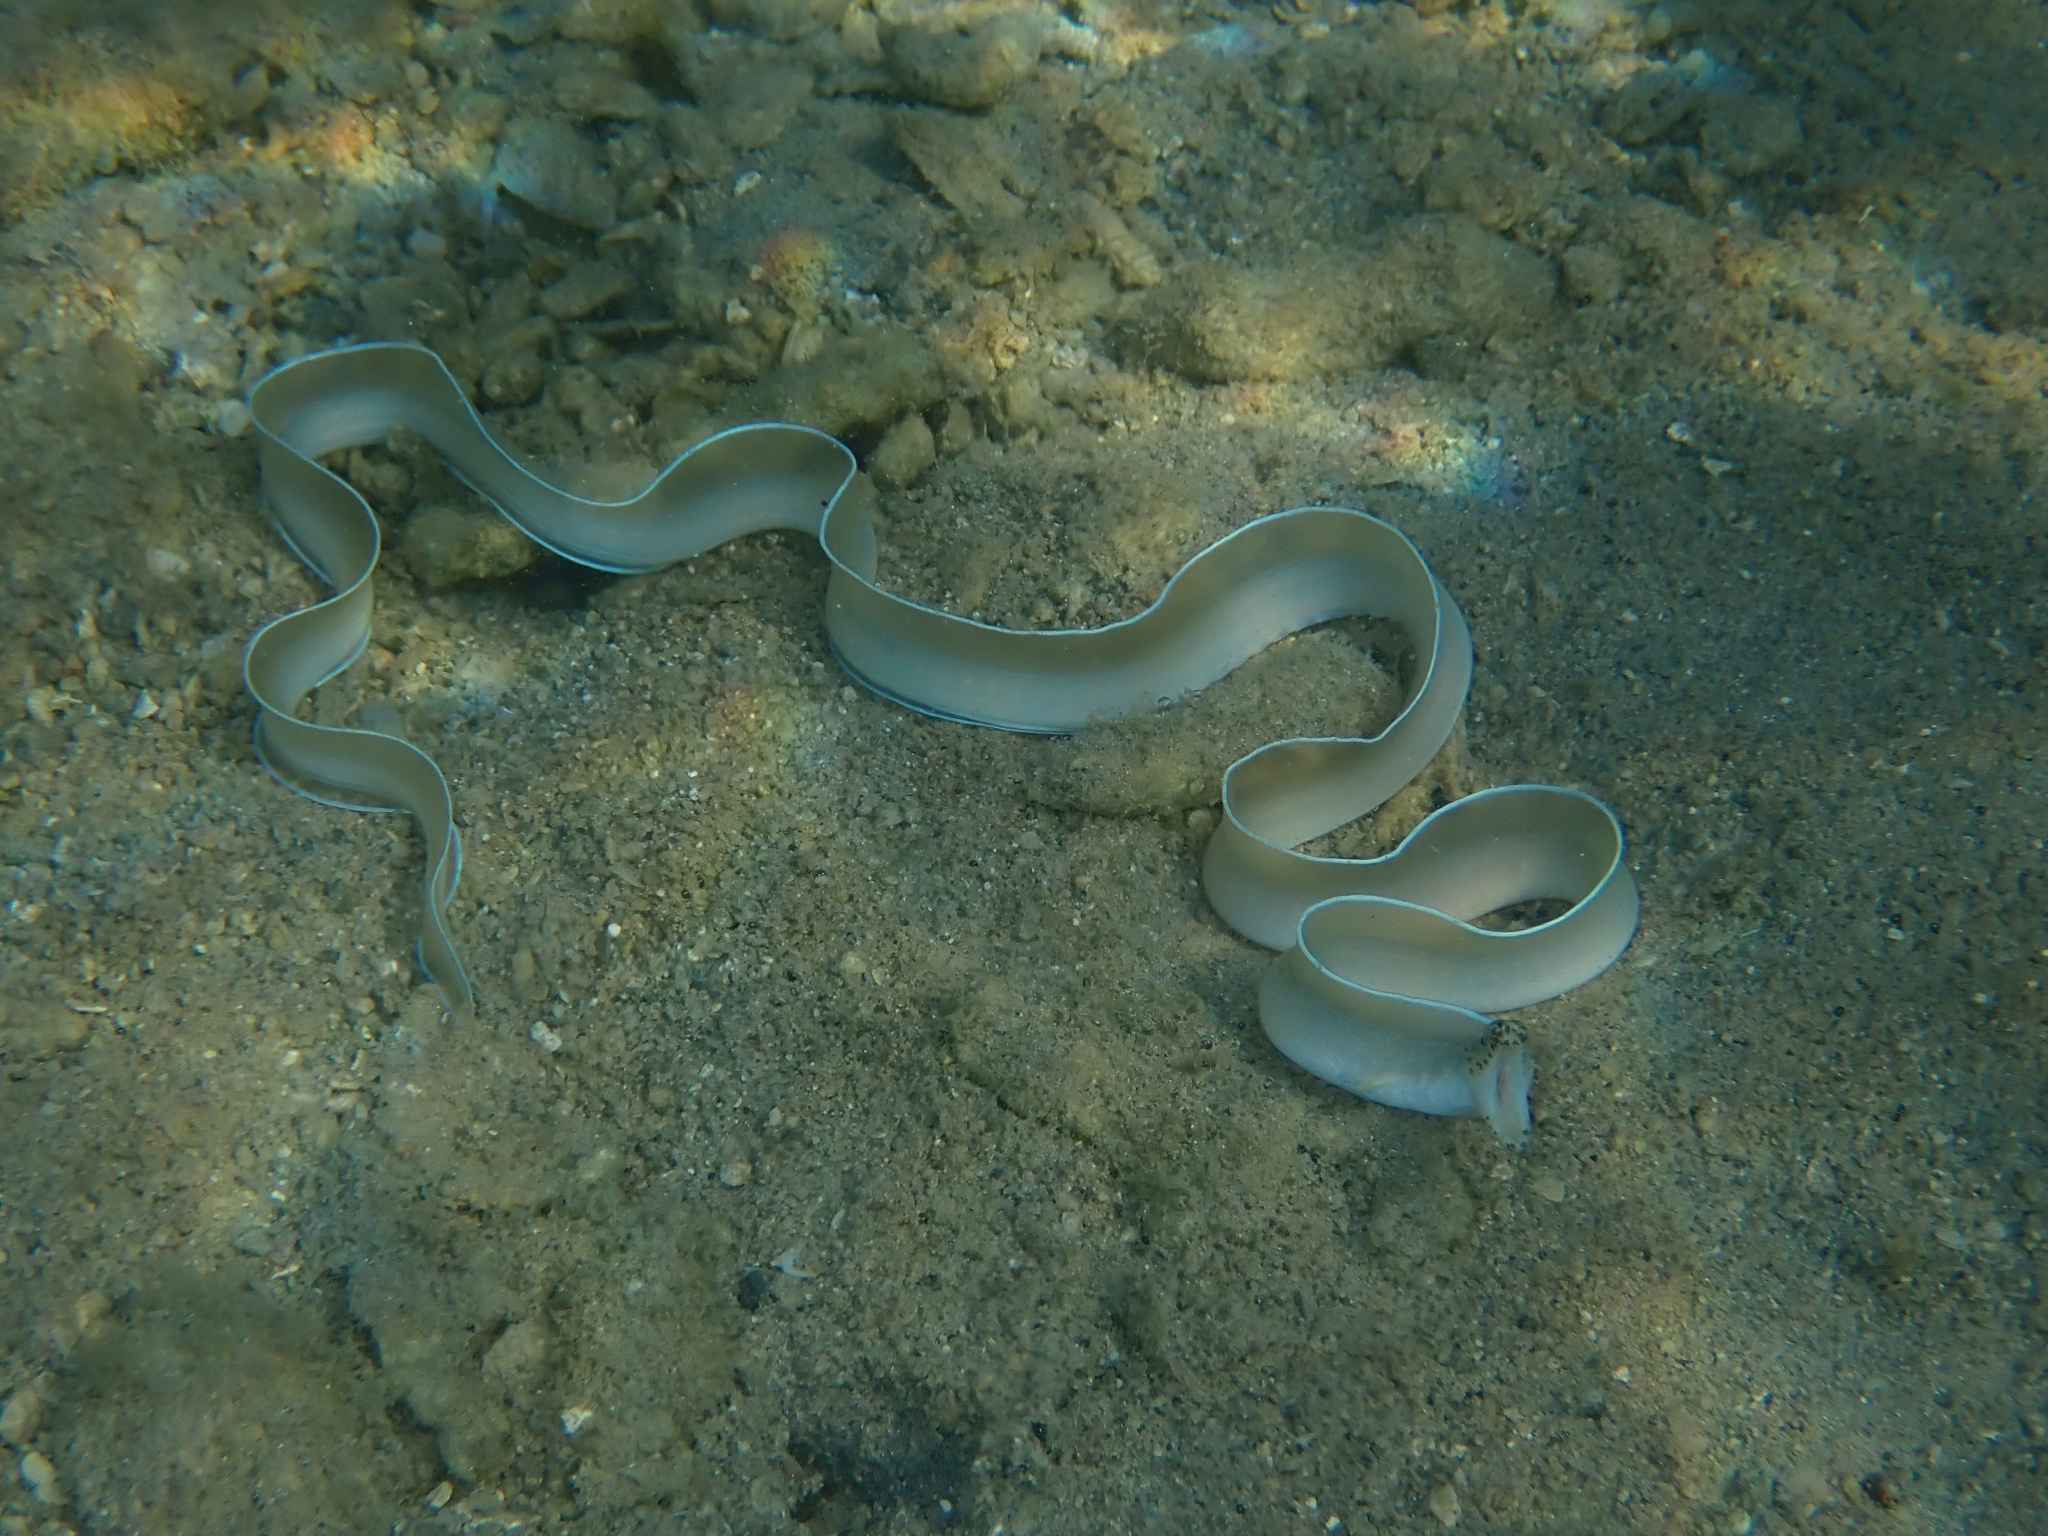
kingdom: Animalia
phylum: Chordata
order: Anguilliformes
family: Muraenidae
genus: Pseudechidna
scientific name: Pseudechidna brummeri
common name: White ribbon eel
